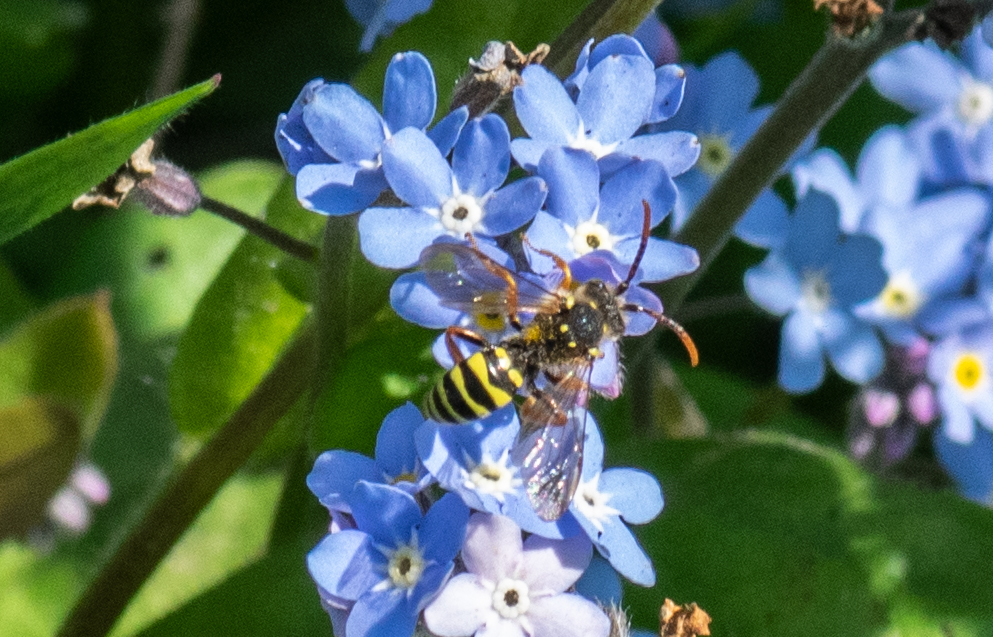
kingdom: Animalia
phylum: Arthropoda
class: Insecta
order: Hymenoptera
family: Apidae
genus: Nomada
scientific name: Nomada goodeniana
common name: Gooden's nomad bee
